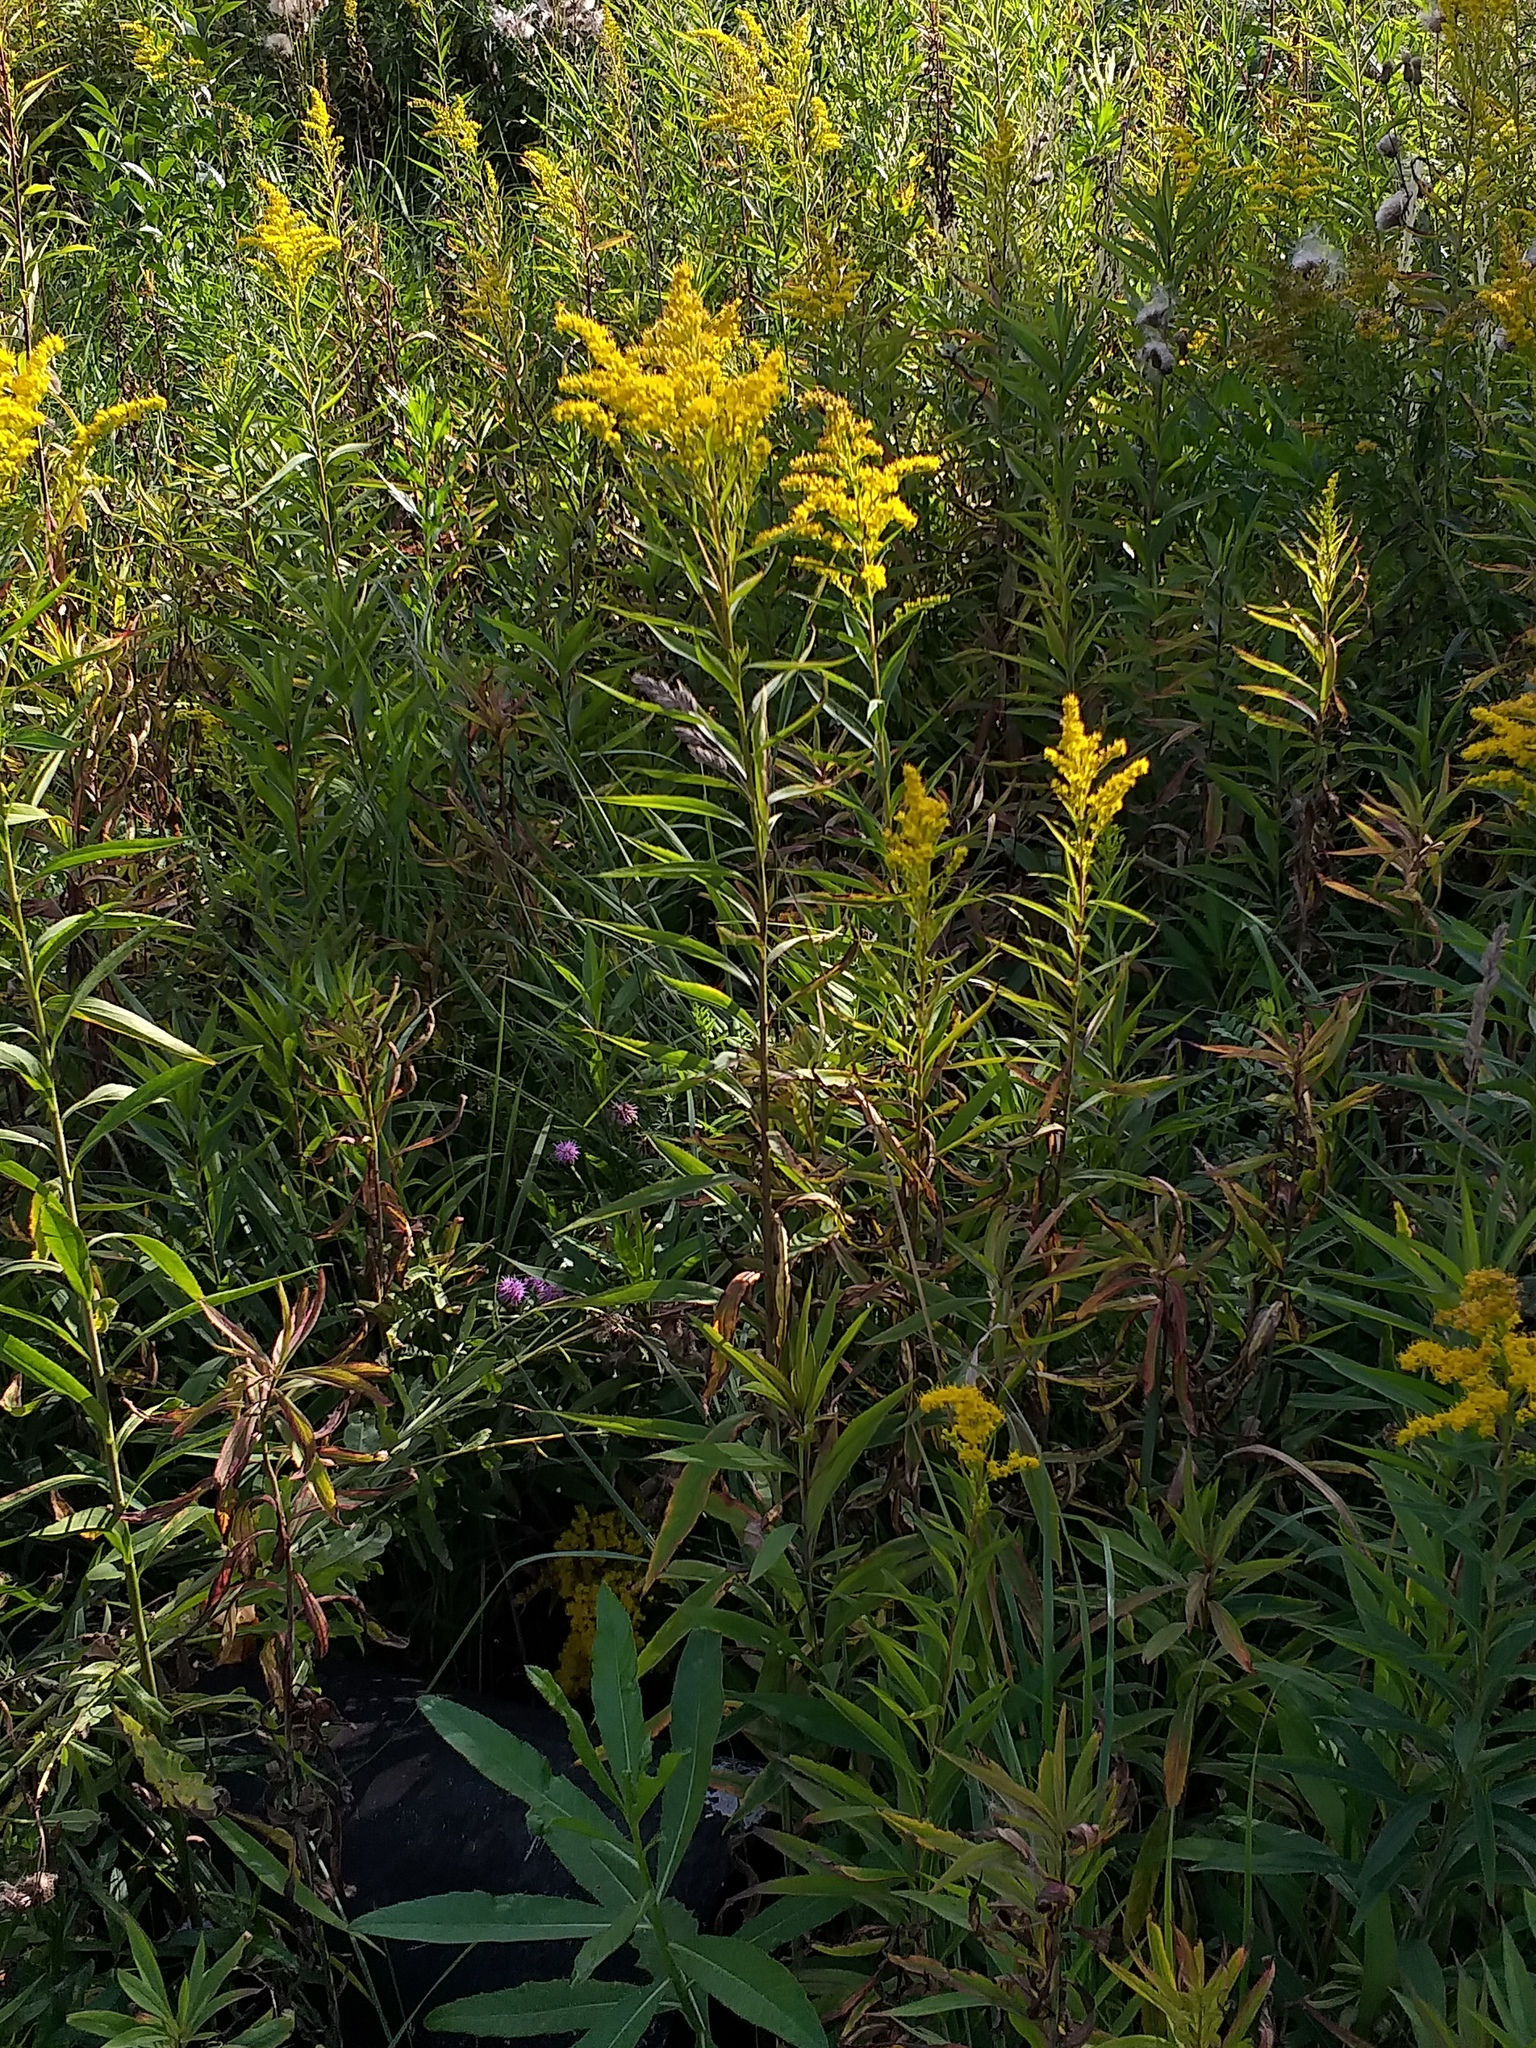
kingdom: Plantae
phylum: Tracheophyta
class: Magnoliopsida
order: Asterales
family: Asteraceae
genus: Solidago
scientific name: Solidago gigantea
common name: Giant goldenrod
